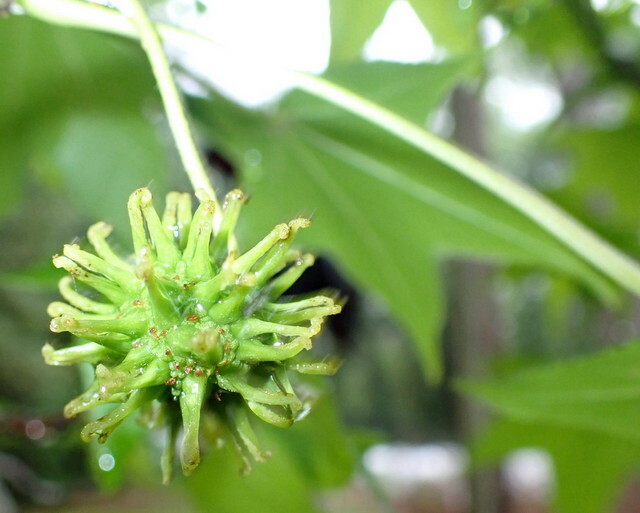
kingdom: Plantae
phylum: Tracheophyta
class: Magnoliopsida
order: Saxifragales
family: Altingiaceae
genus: Liquidambar
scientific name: Liquidambar styraciflua
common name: Sweet gum
